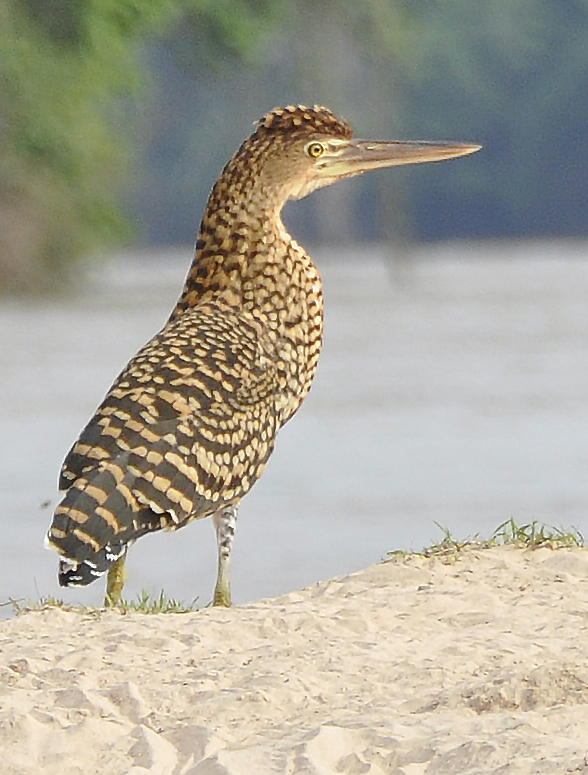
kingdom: Animalia
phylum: Chordata
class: Aves
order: Pelecaniformes
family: Ardeidae
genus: Tigrisoma
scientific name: Tigrisoma lineatum
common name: Rufescent tiger-heron
